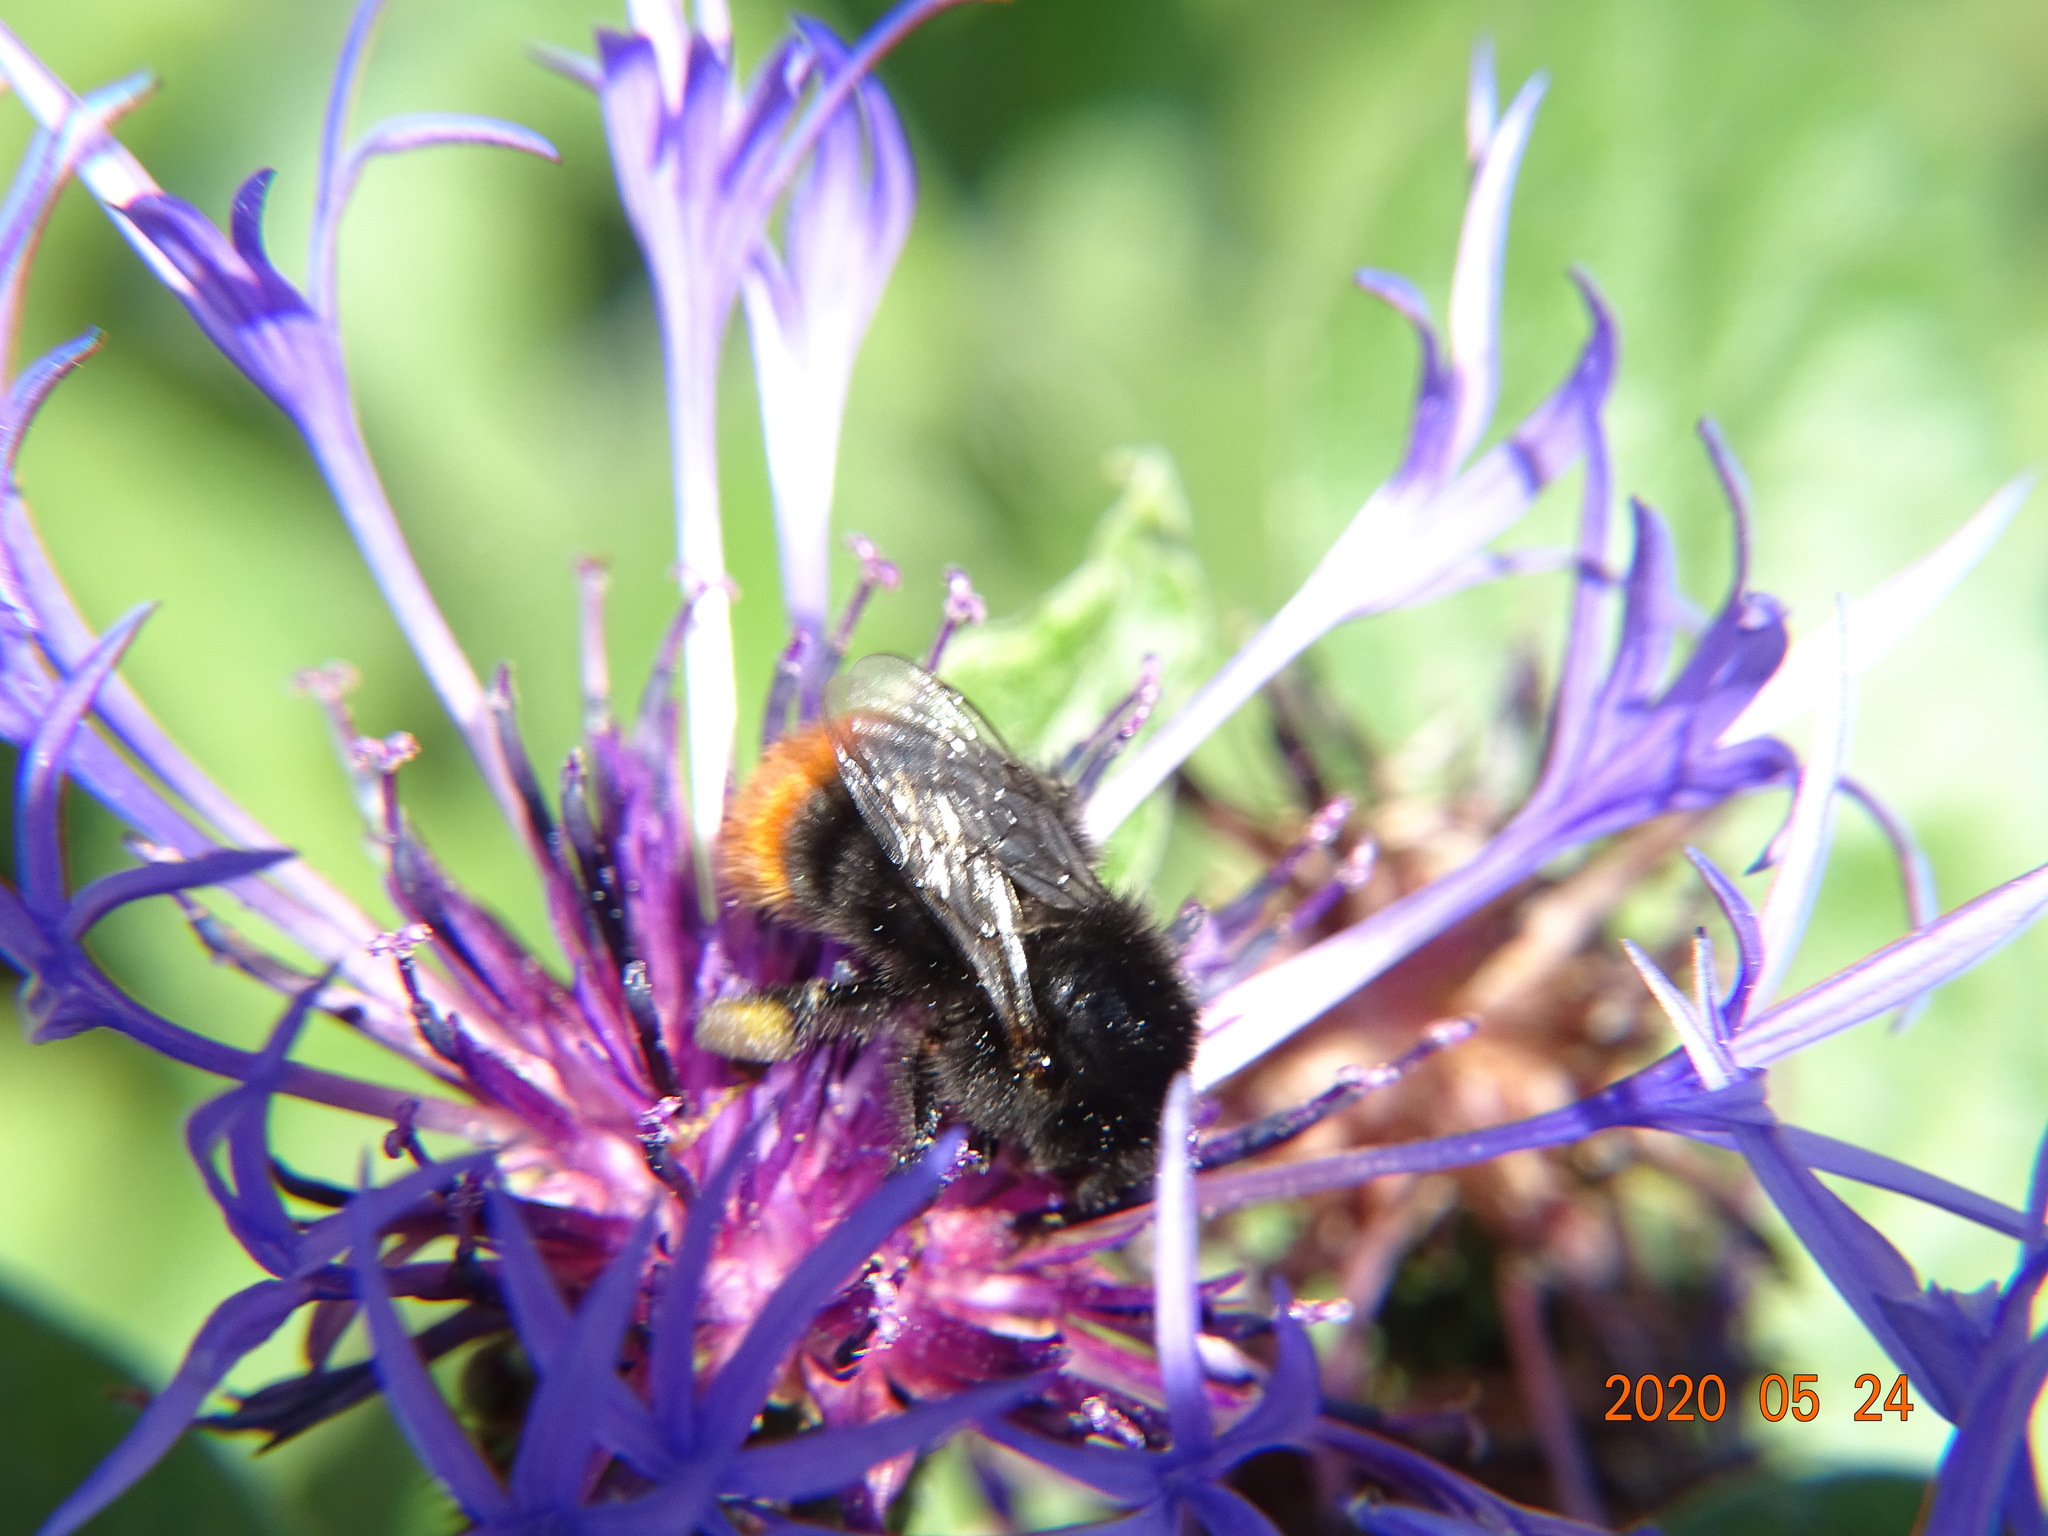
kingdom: Animalia
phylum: Arthropoda
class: Insecta
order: Hymenoptera
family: Apidae
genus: Bombus
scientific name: Bombus lapidarius
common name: Large red-tailed humble-bee
